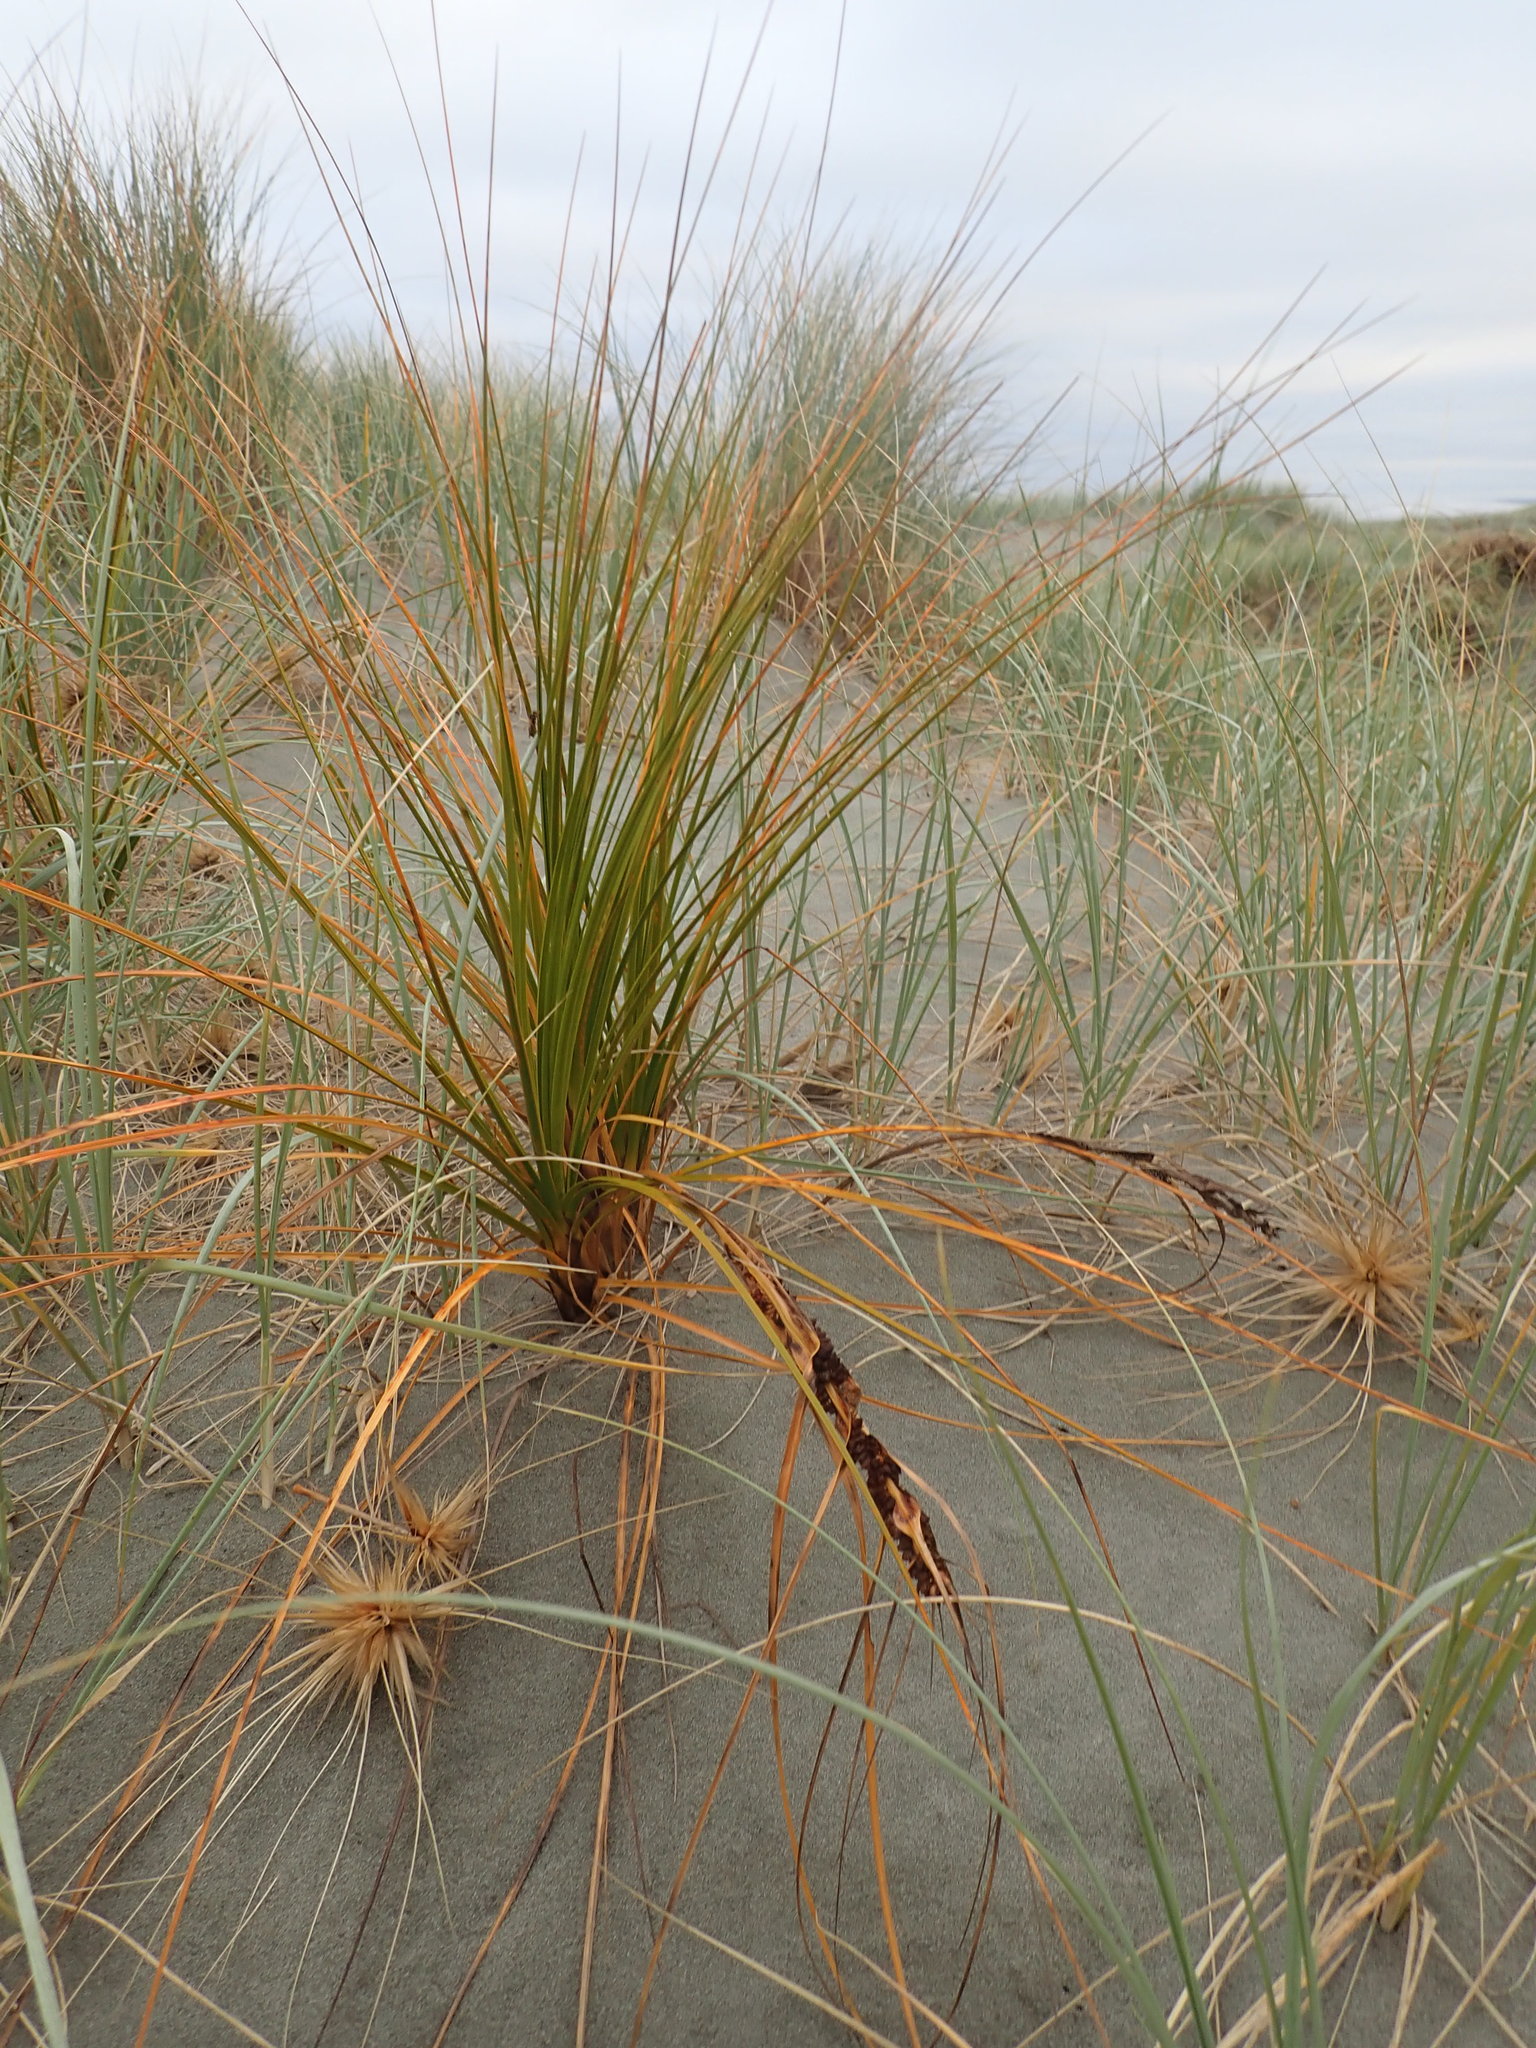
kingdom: Plantae
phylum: Tracheophyta
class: Liliopsida
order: Poales
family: Cyperaceae
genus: Ficinia
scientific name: Ficinia spiralis
